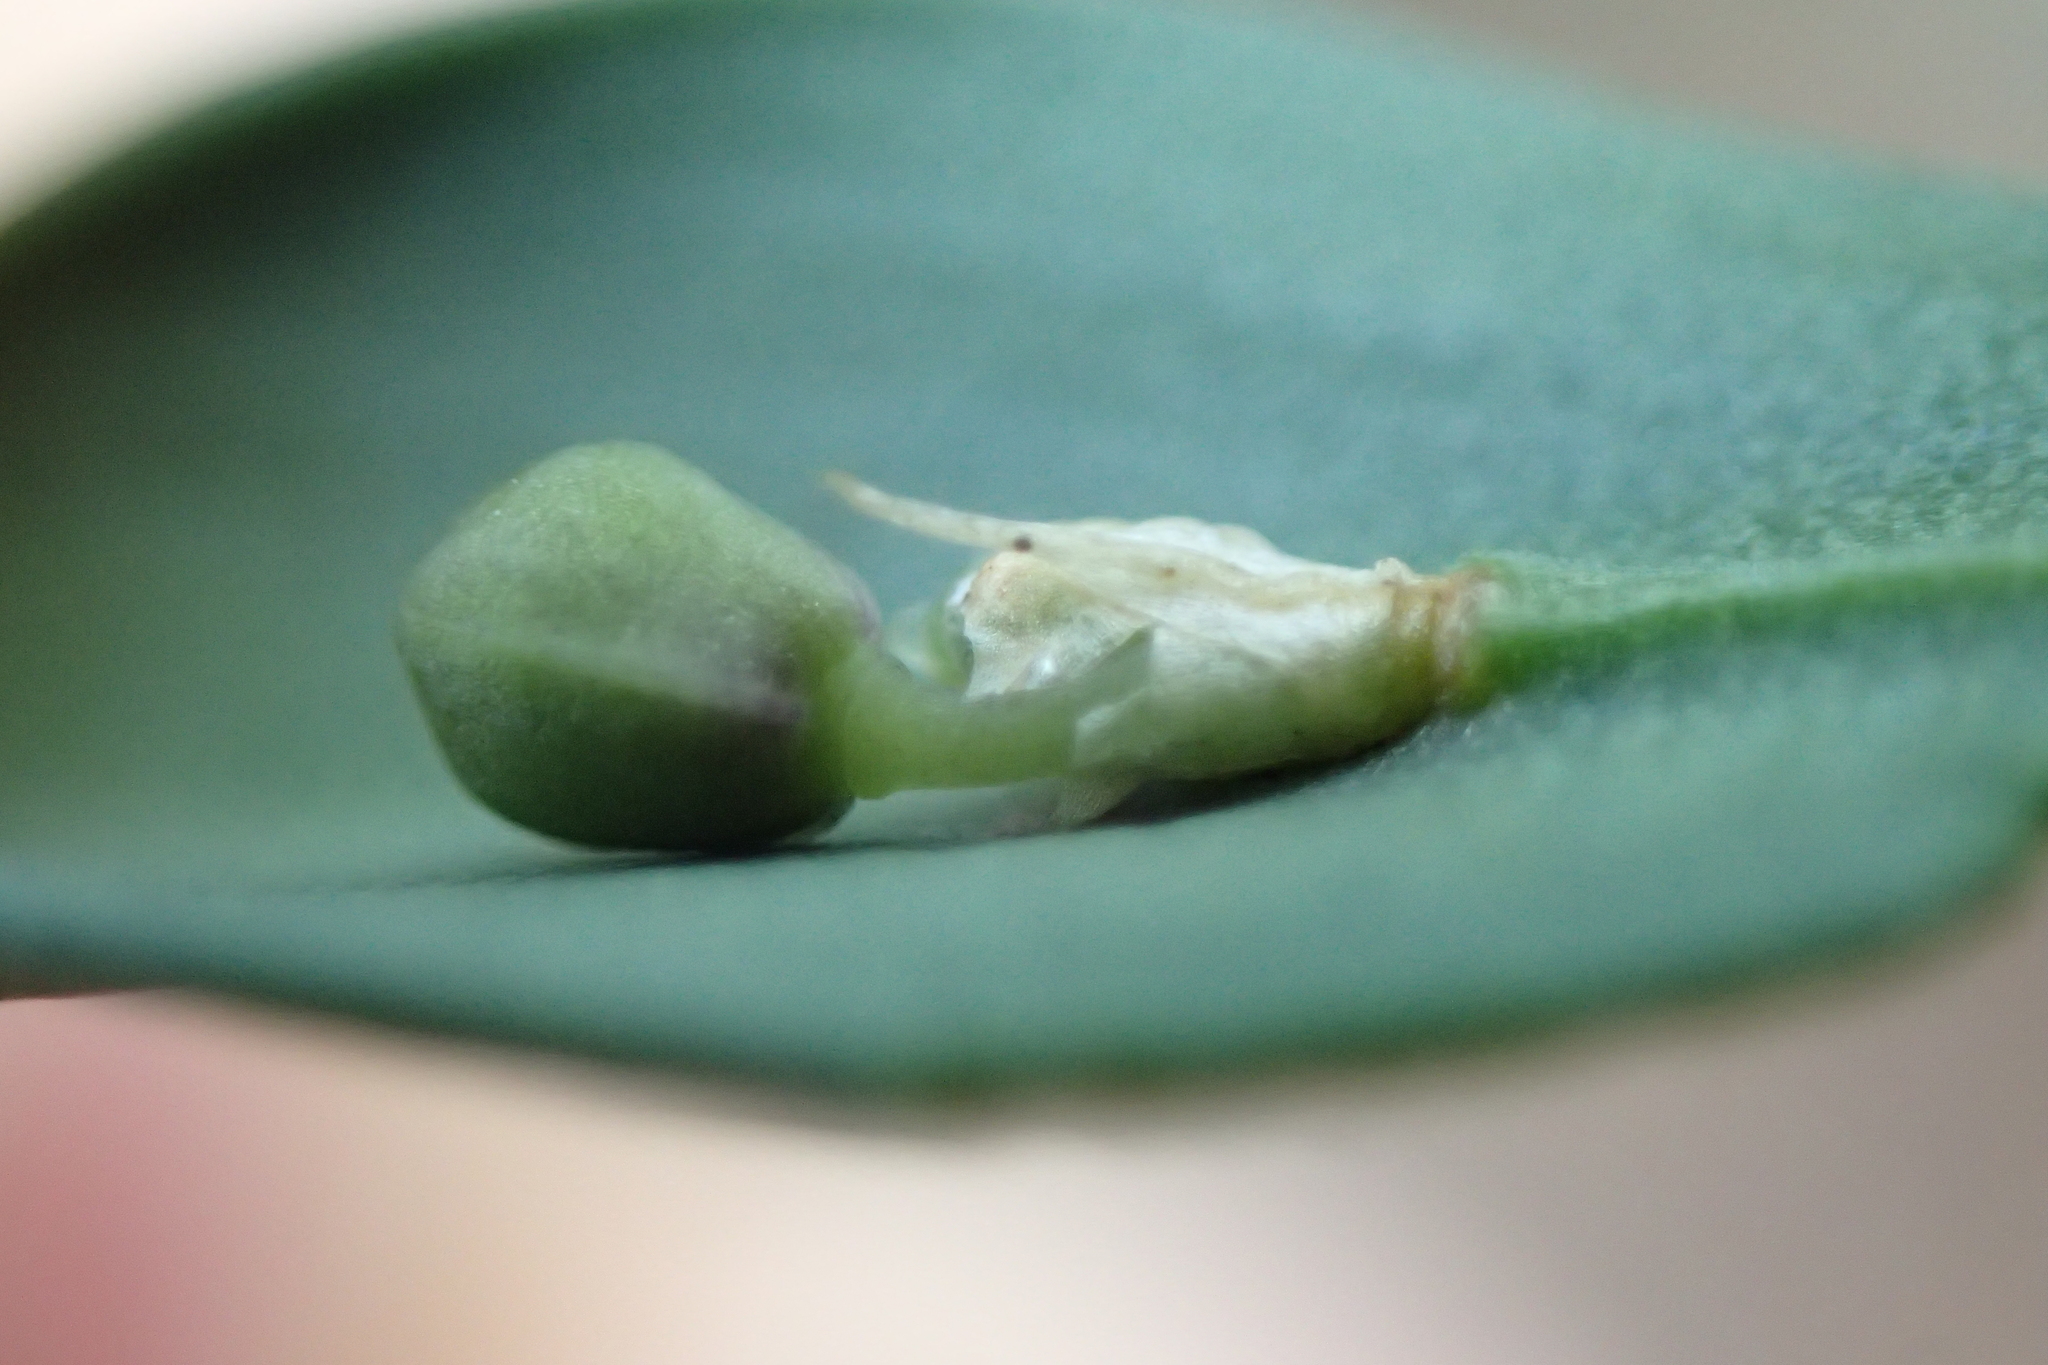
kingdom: Plantae
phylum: Tracheophyta
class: Liliopsida
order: Asparagales
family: Asparagaceae
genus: Ruscus
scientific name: Ruscus aculeatus
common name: Butcher's-broom
